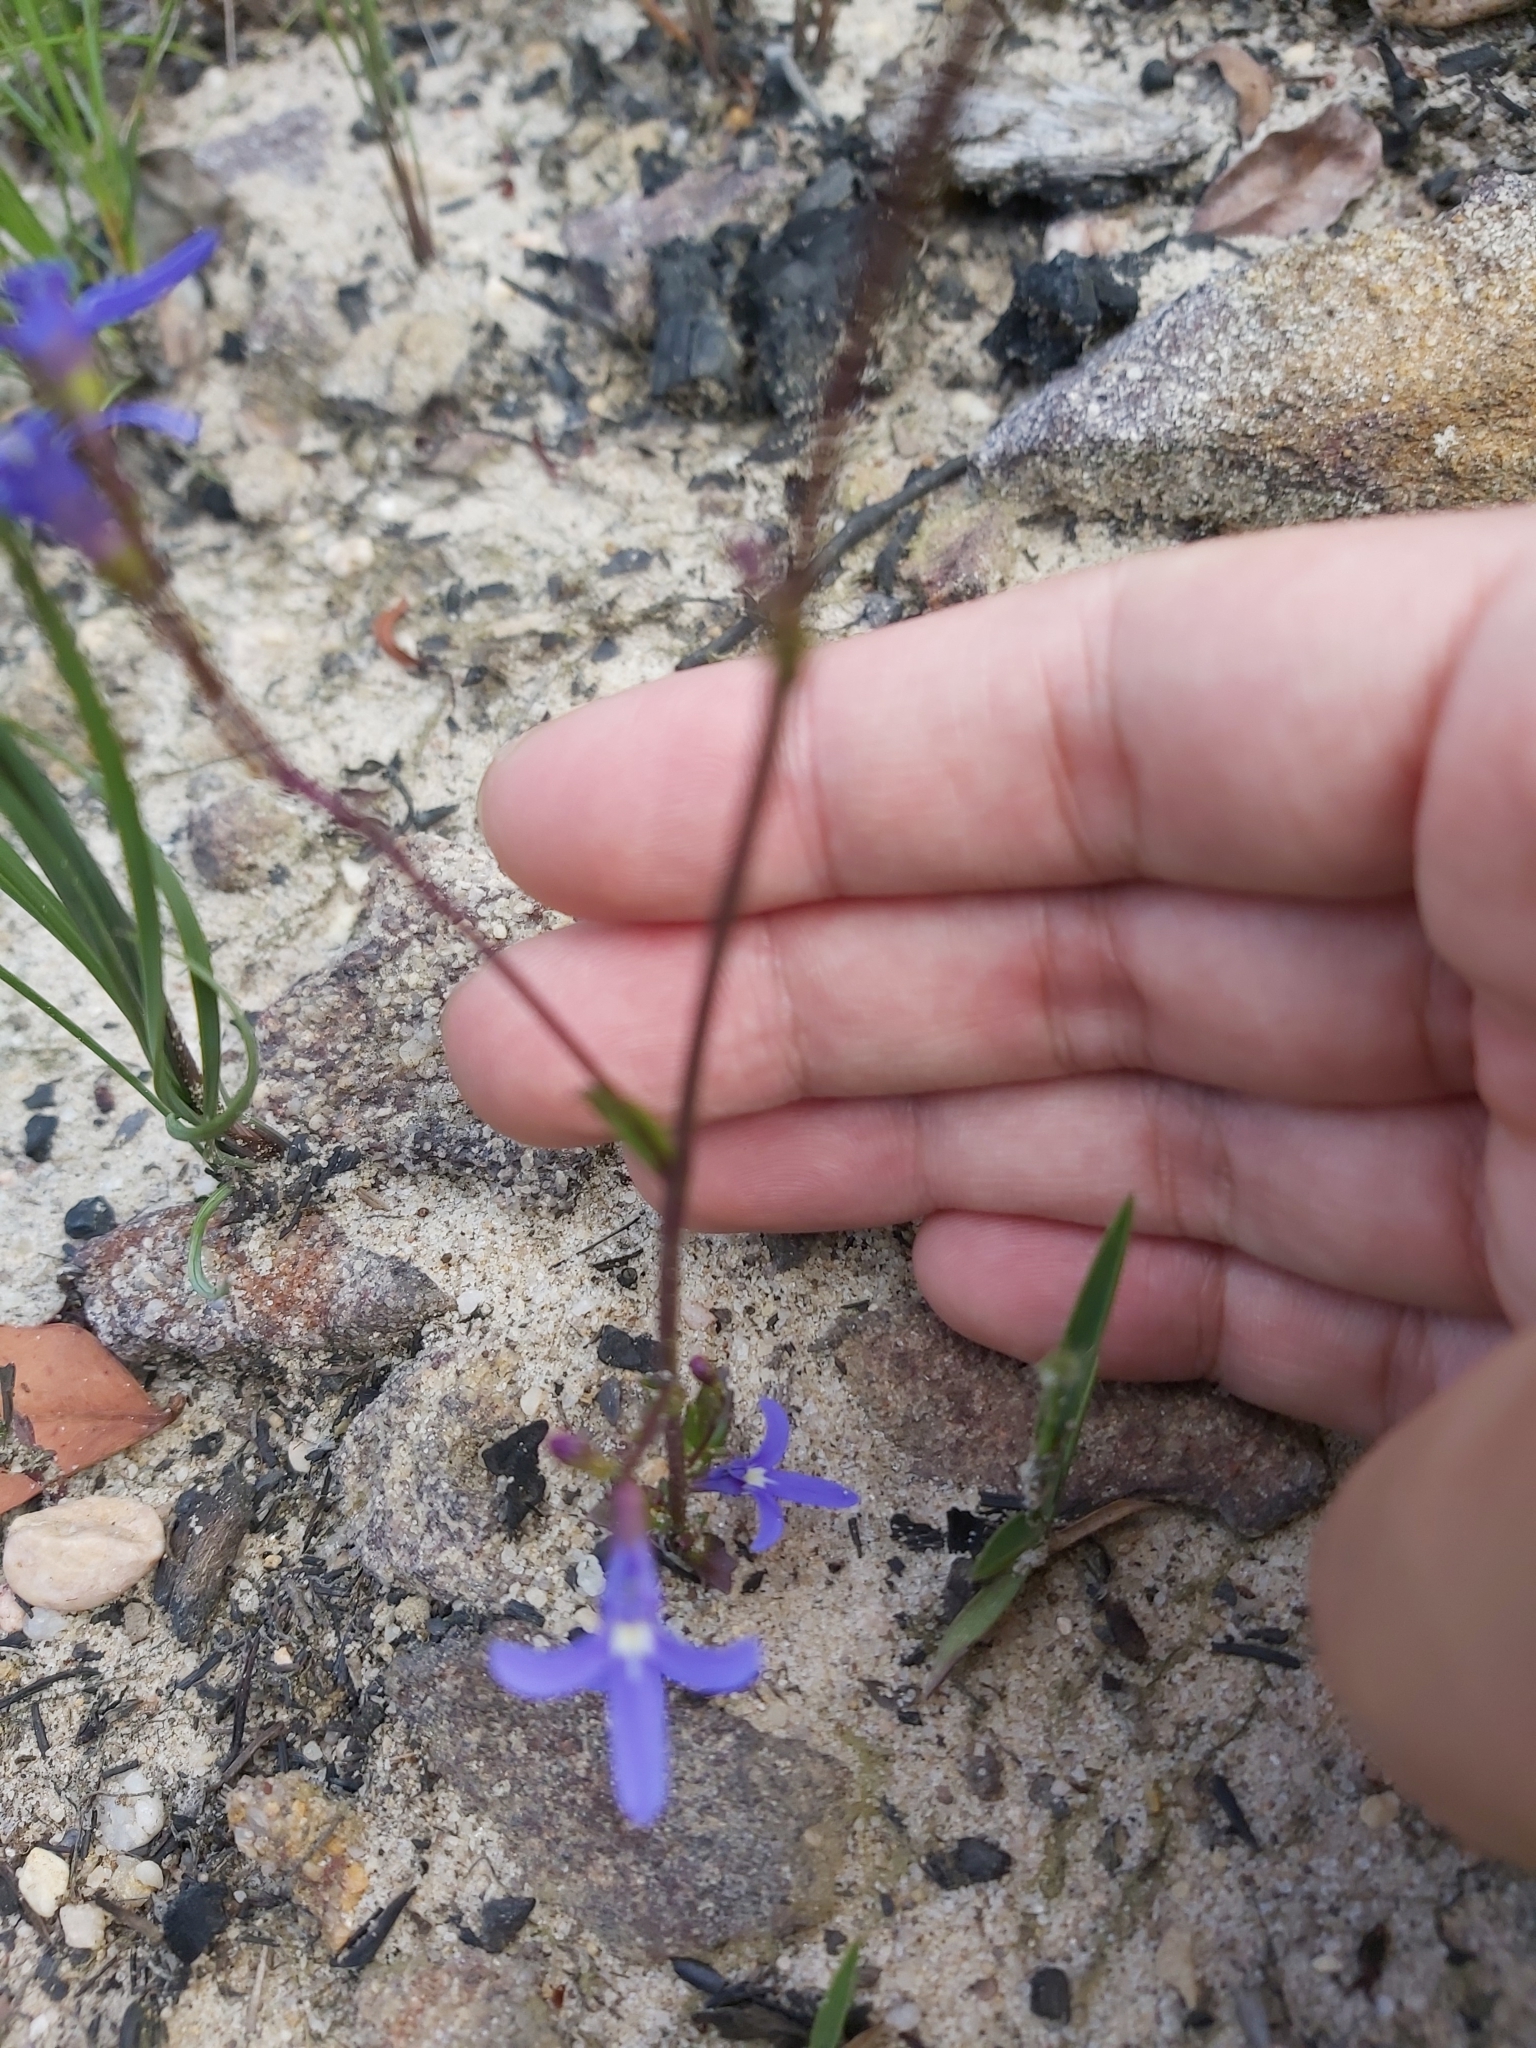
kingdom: Plantae
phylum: Tracheophyta
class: Magnoliopsida
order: Asterales
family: Campanulaceae
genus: Lobelia
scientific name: Lobelia dentata
